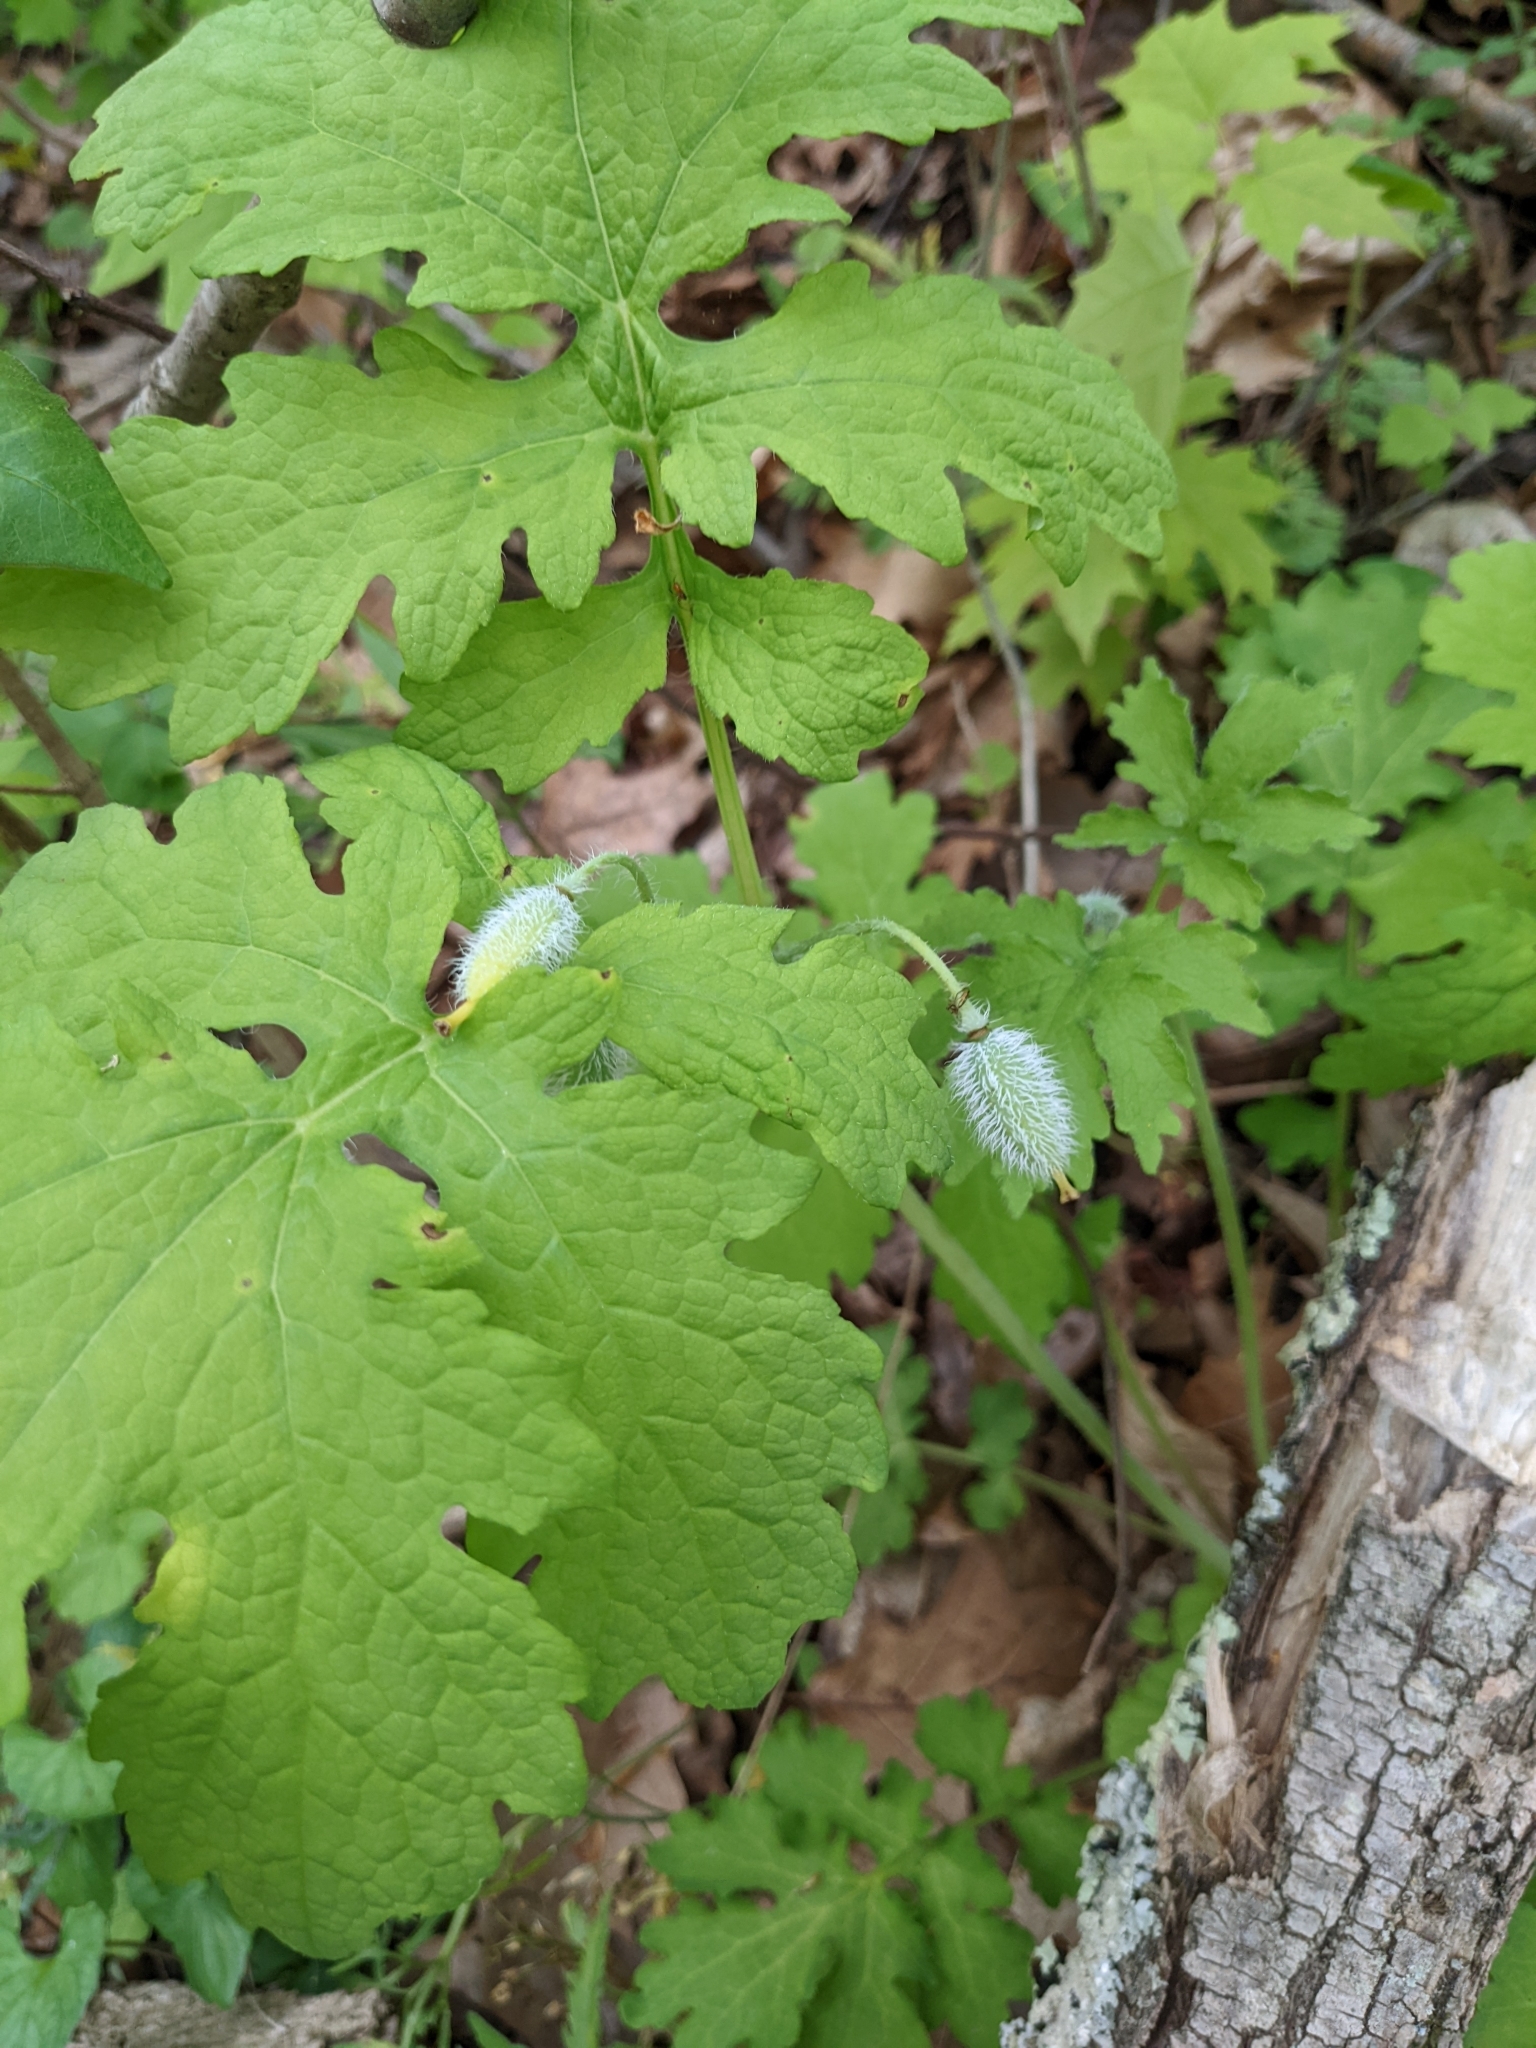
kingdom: Plantae
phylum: Tracheophyta
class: Magnoliopsida
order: Ranunculales
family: Papaveraceae
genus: Stylophorum
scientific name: Stylophorum diphyllum
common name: Celandine poppy
